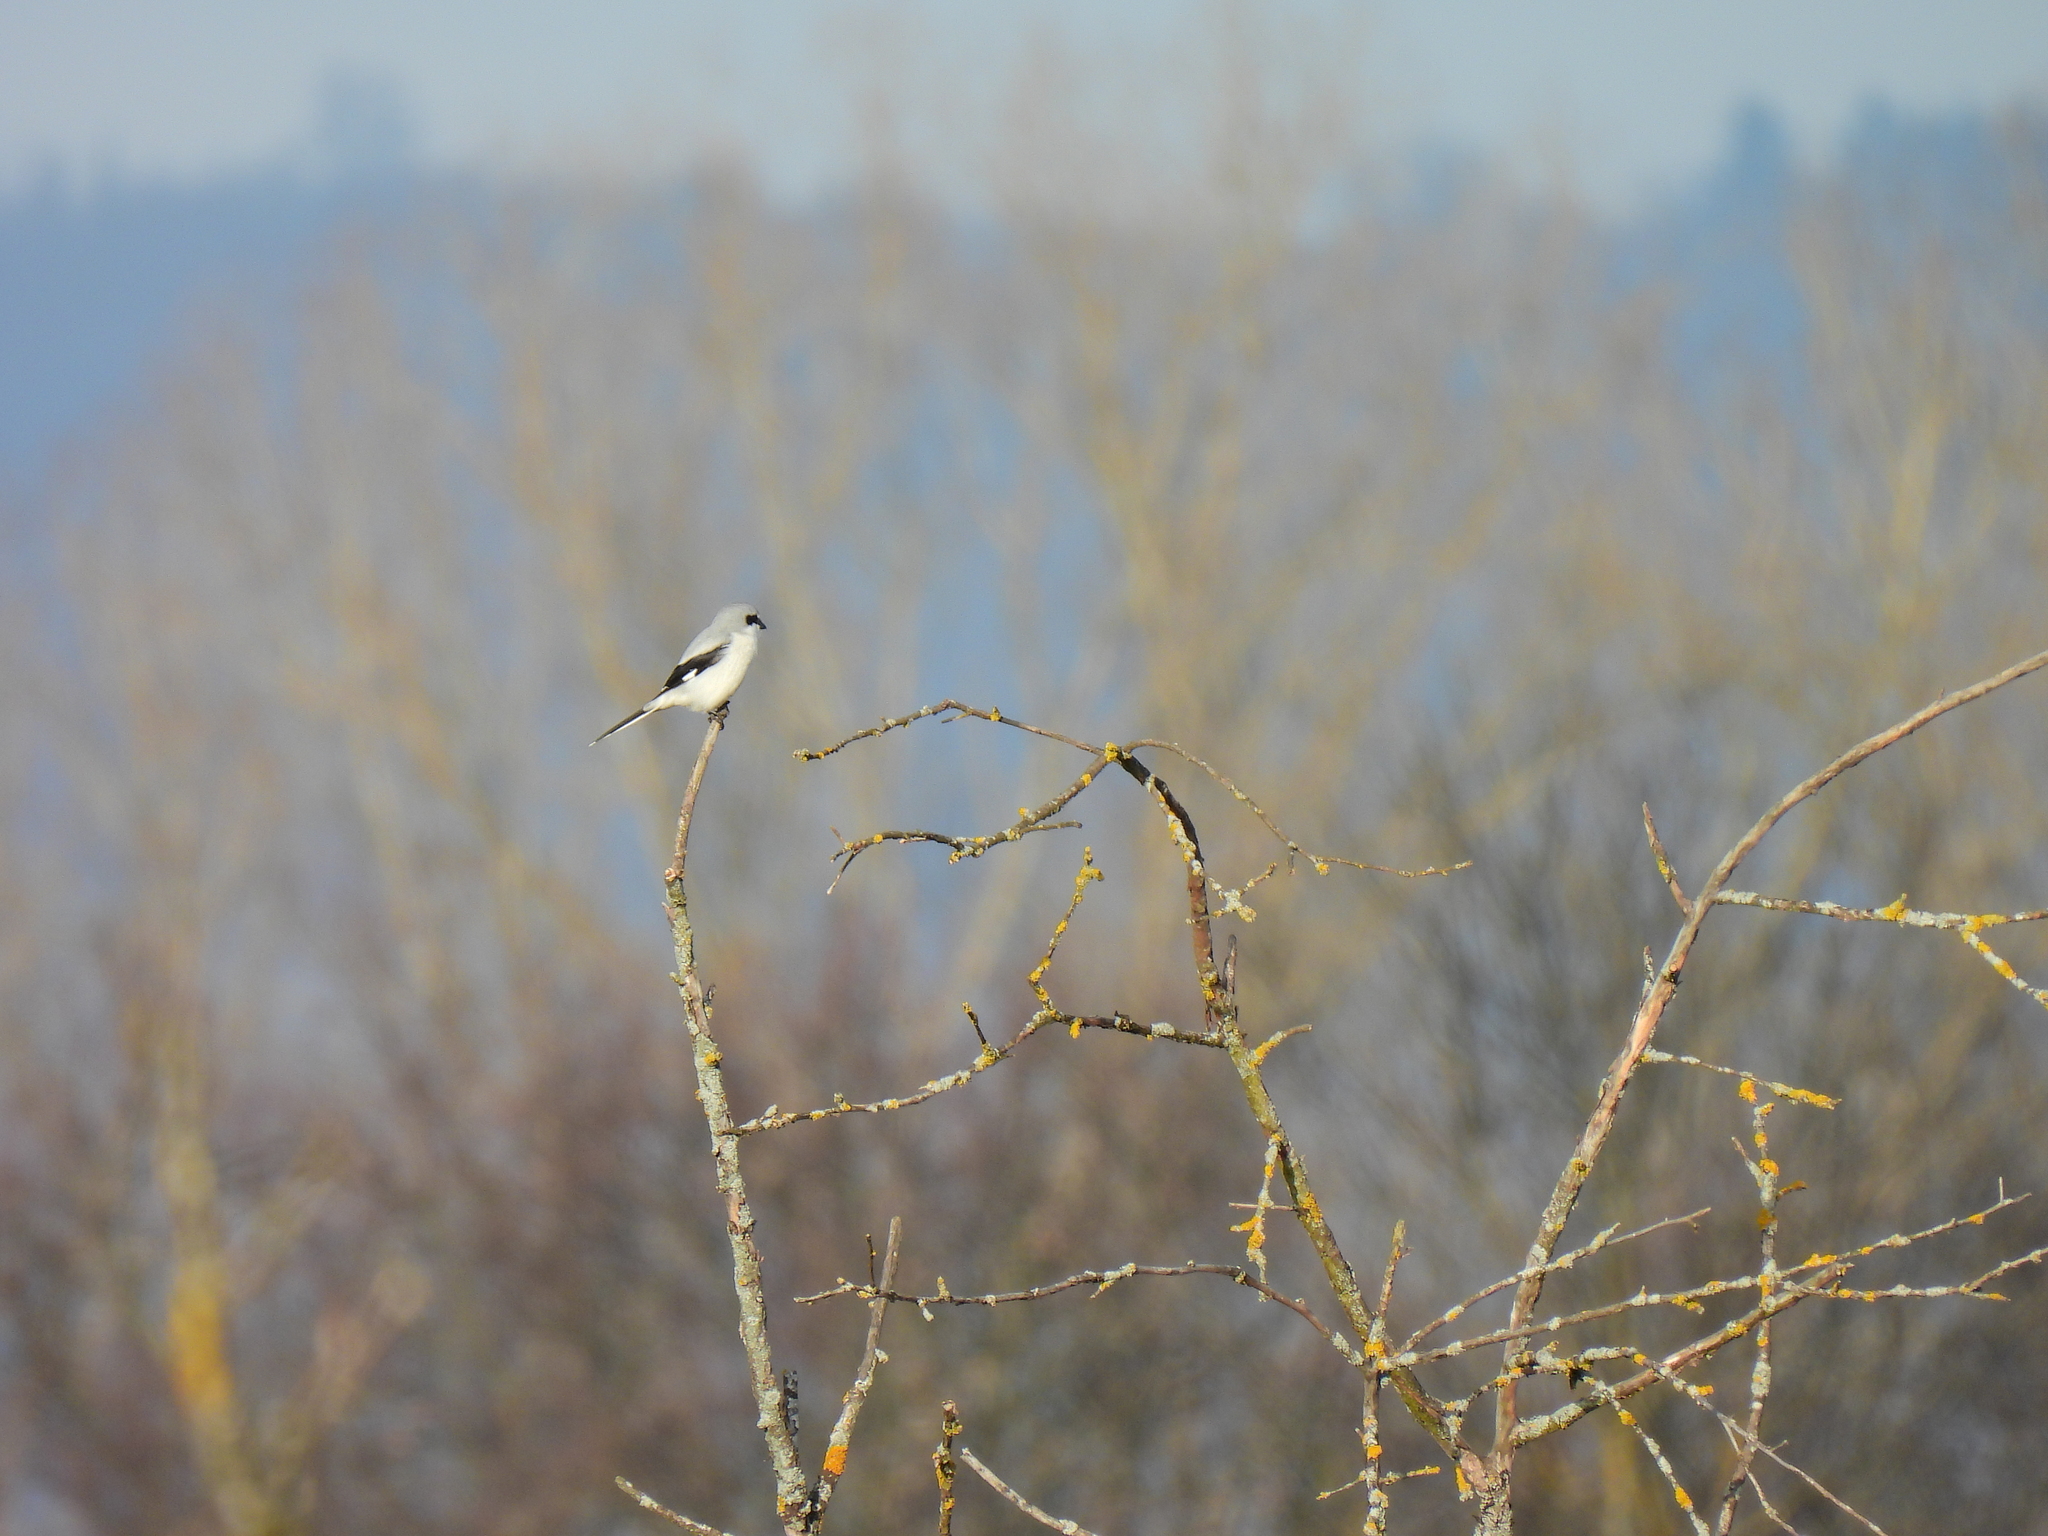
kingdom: Animalia
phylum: Chordata
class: Aves
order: Passeriformes
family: Laniidae
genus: Lanius
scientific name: Lanius excubitor
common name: Great grey shrike
